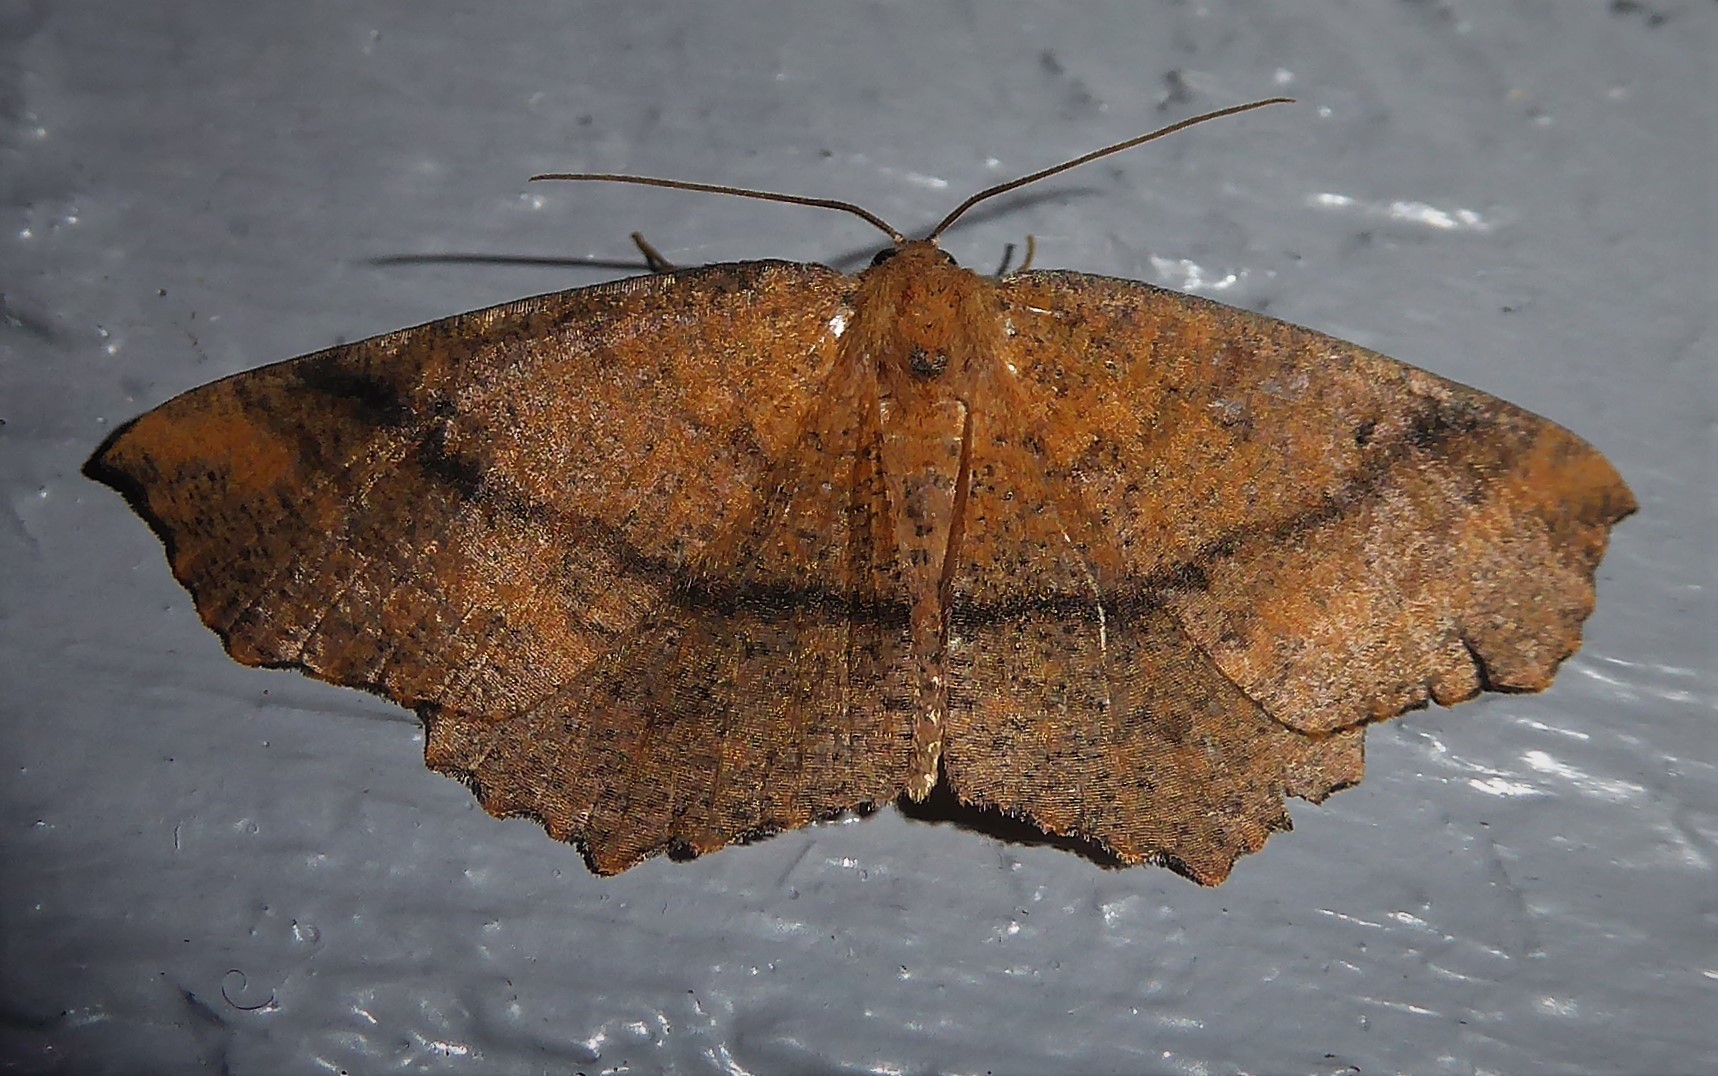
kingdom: Animalia
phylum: Arthropoda
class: Insecta
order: Lepidoptera
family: Geometridae
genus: Xyridacma
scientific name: Xyridacma ustaria
